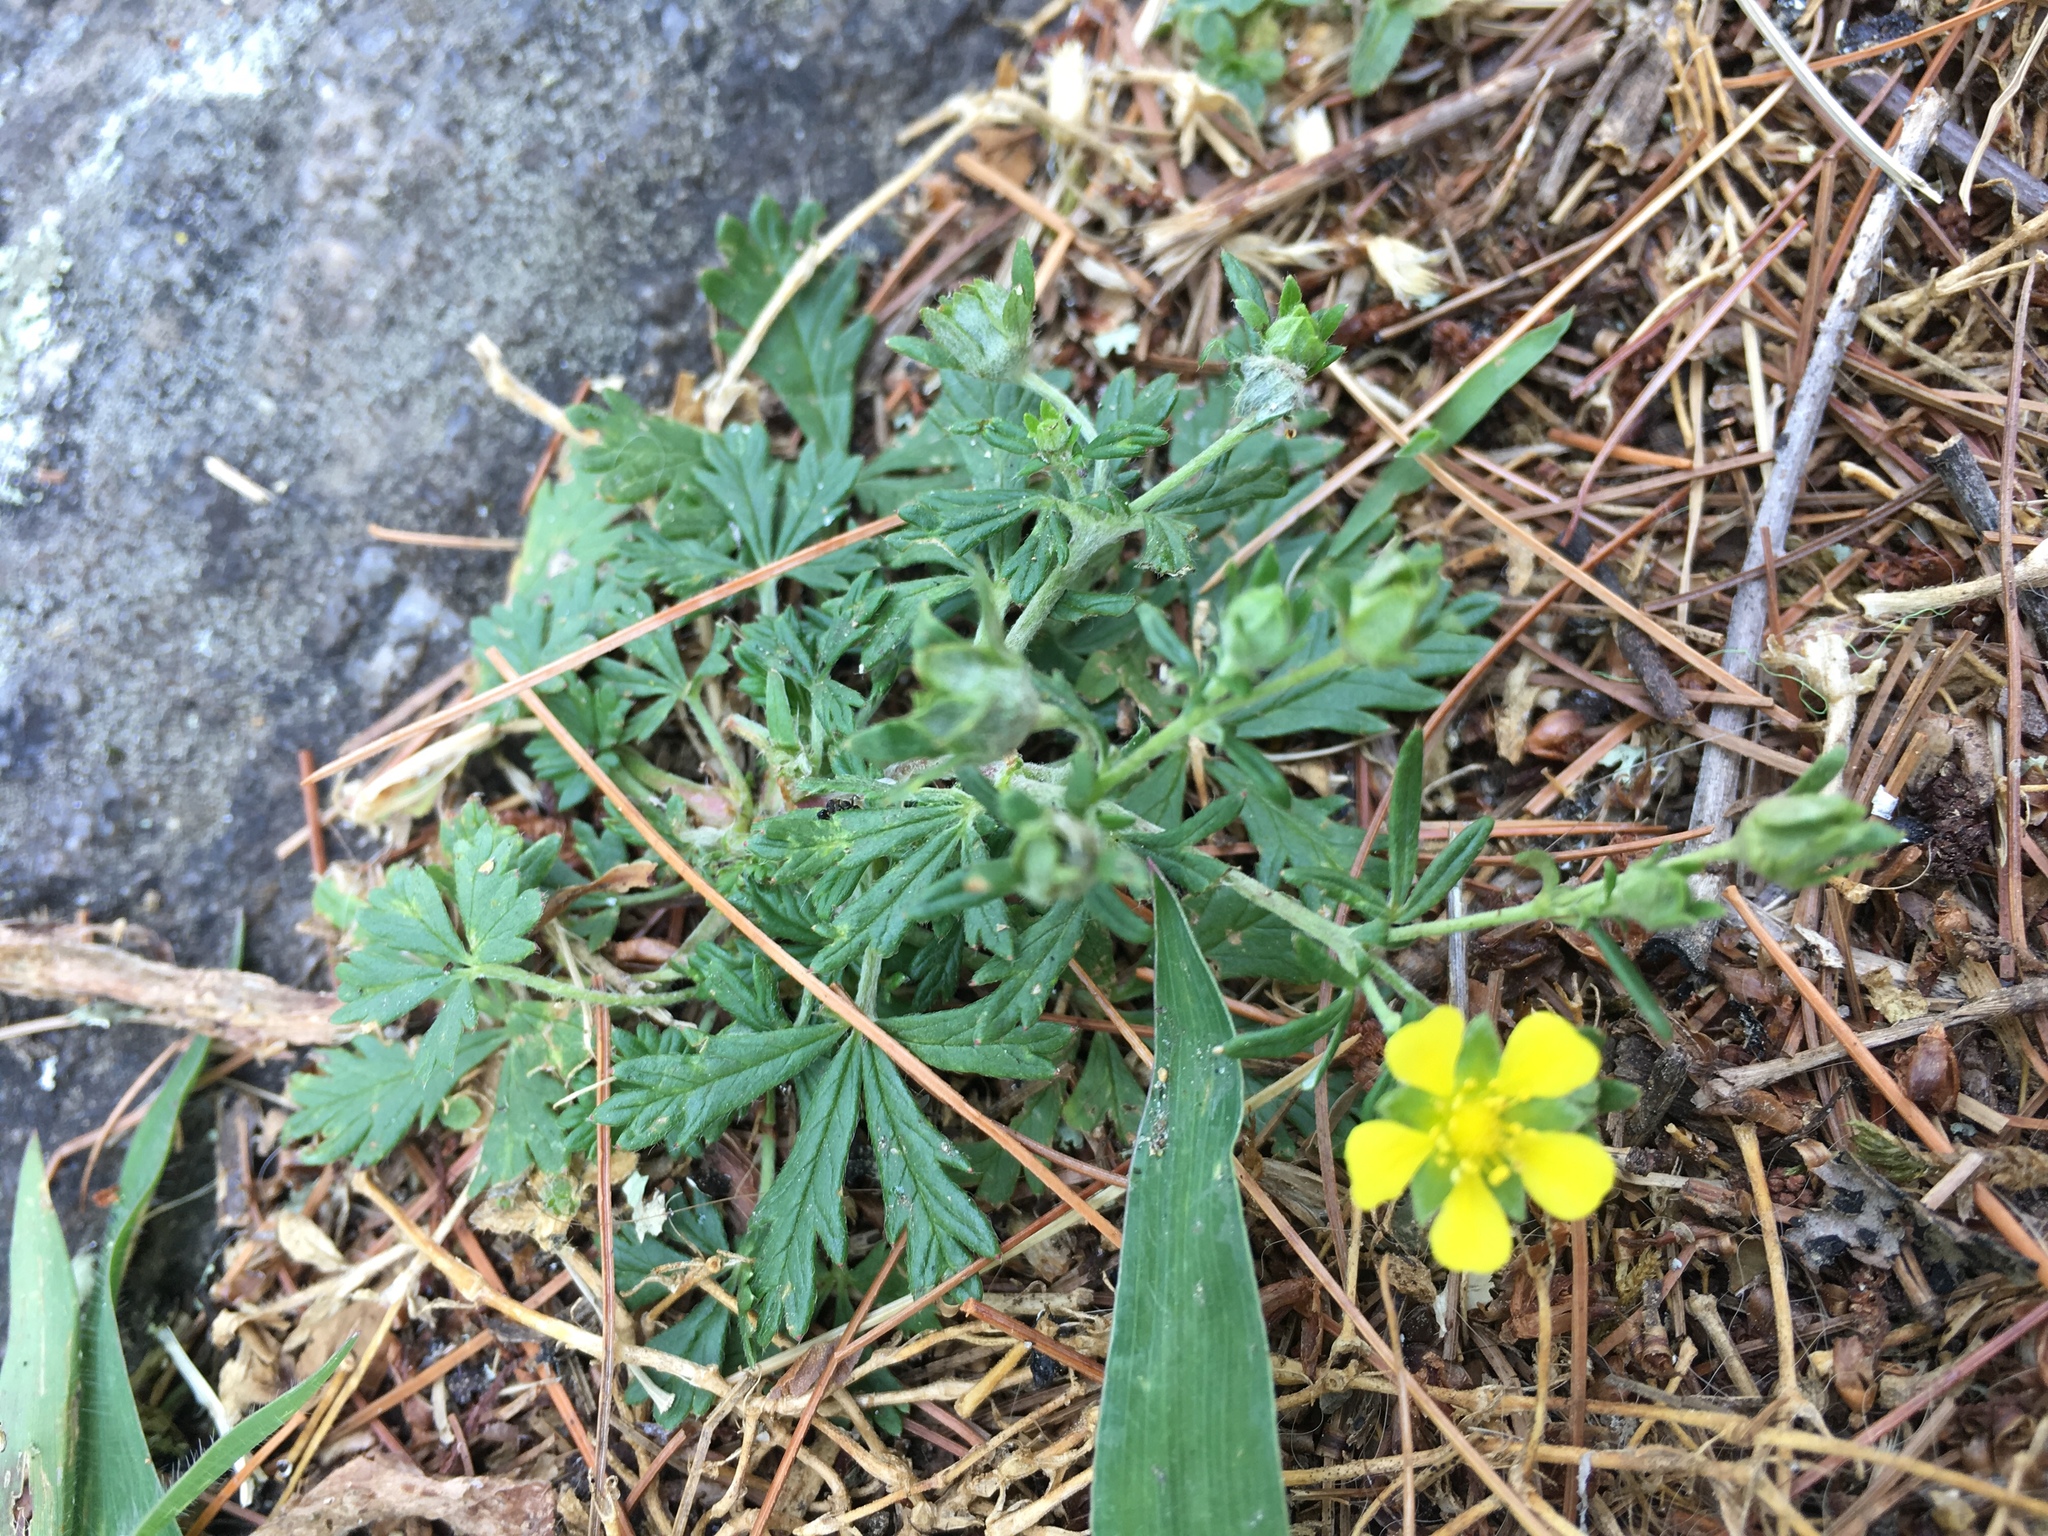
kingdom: Plantae
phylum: Tracheophyta
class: Magnoliopsida
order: Rosales
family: Rosaceae
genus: Potentilla
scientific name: Potentilla argentea
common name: Hoary cinquefoil
